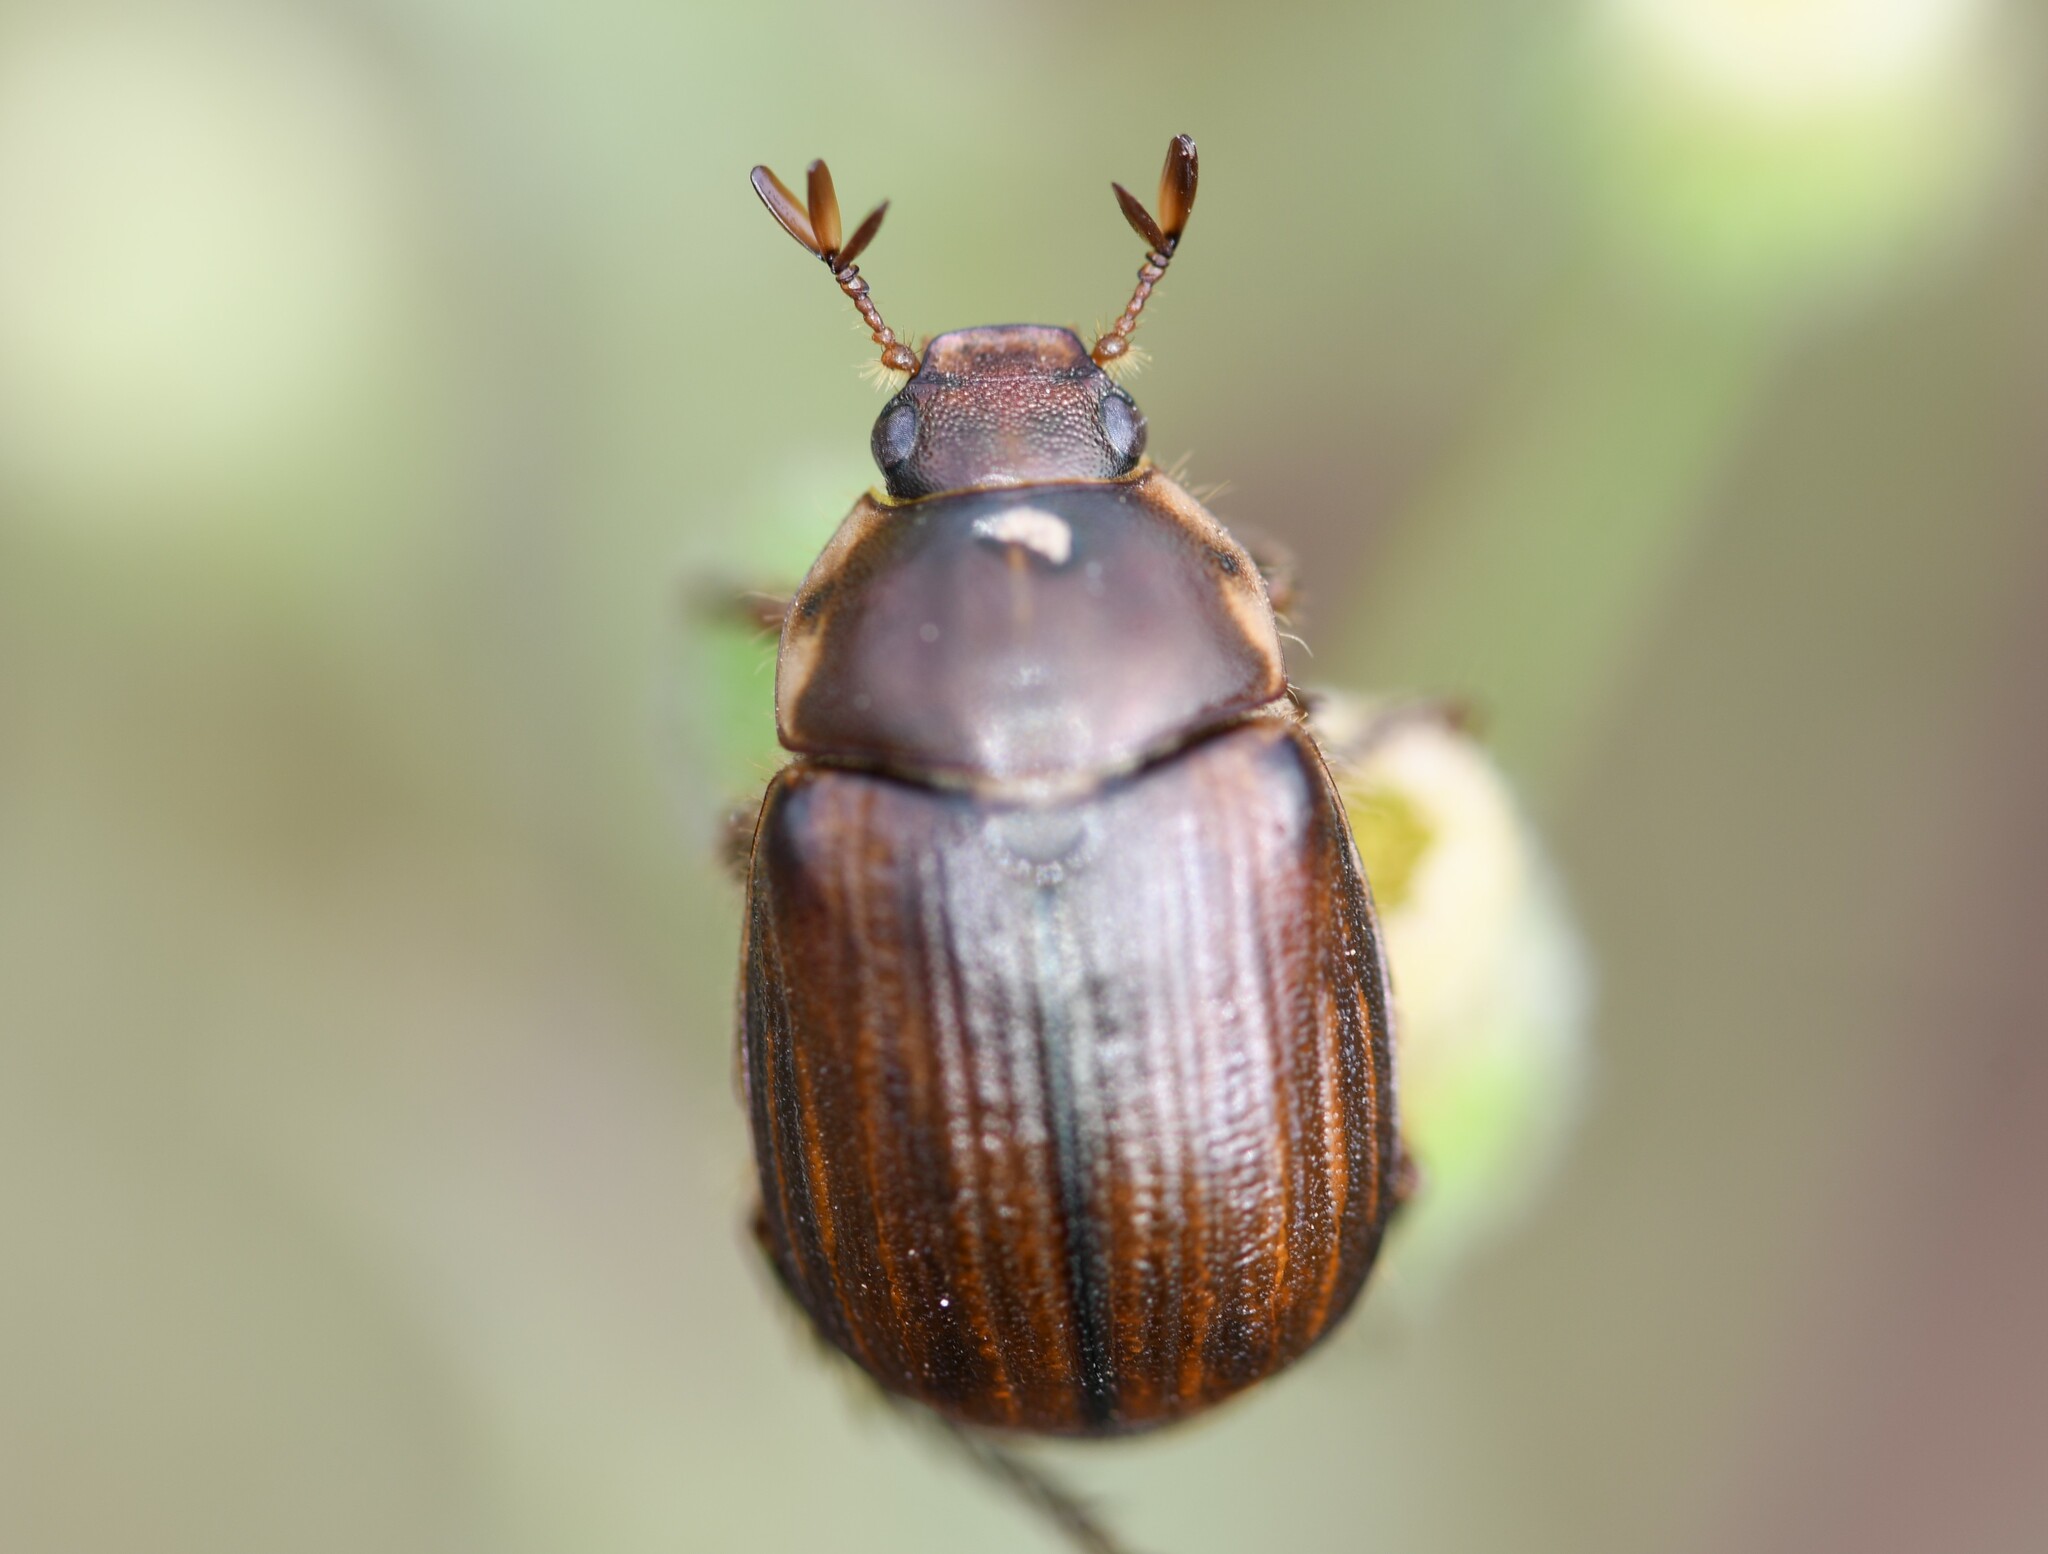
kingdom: Animalia
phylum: Arthropoda
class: Insecta
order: Coleoptera
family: Scarabaeidae
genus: Anomala
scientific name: Anomala quadripunctata
